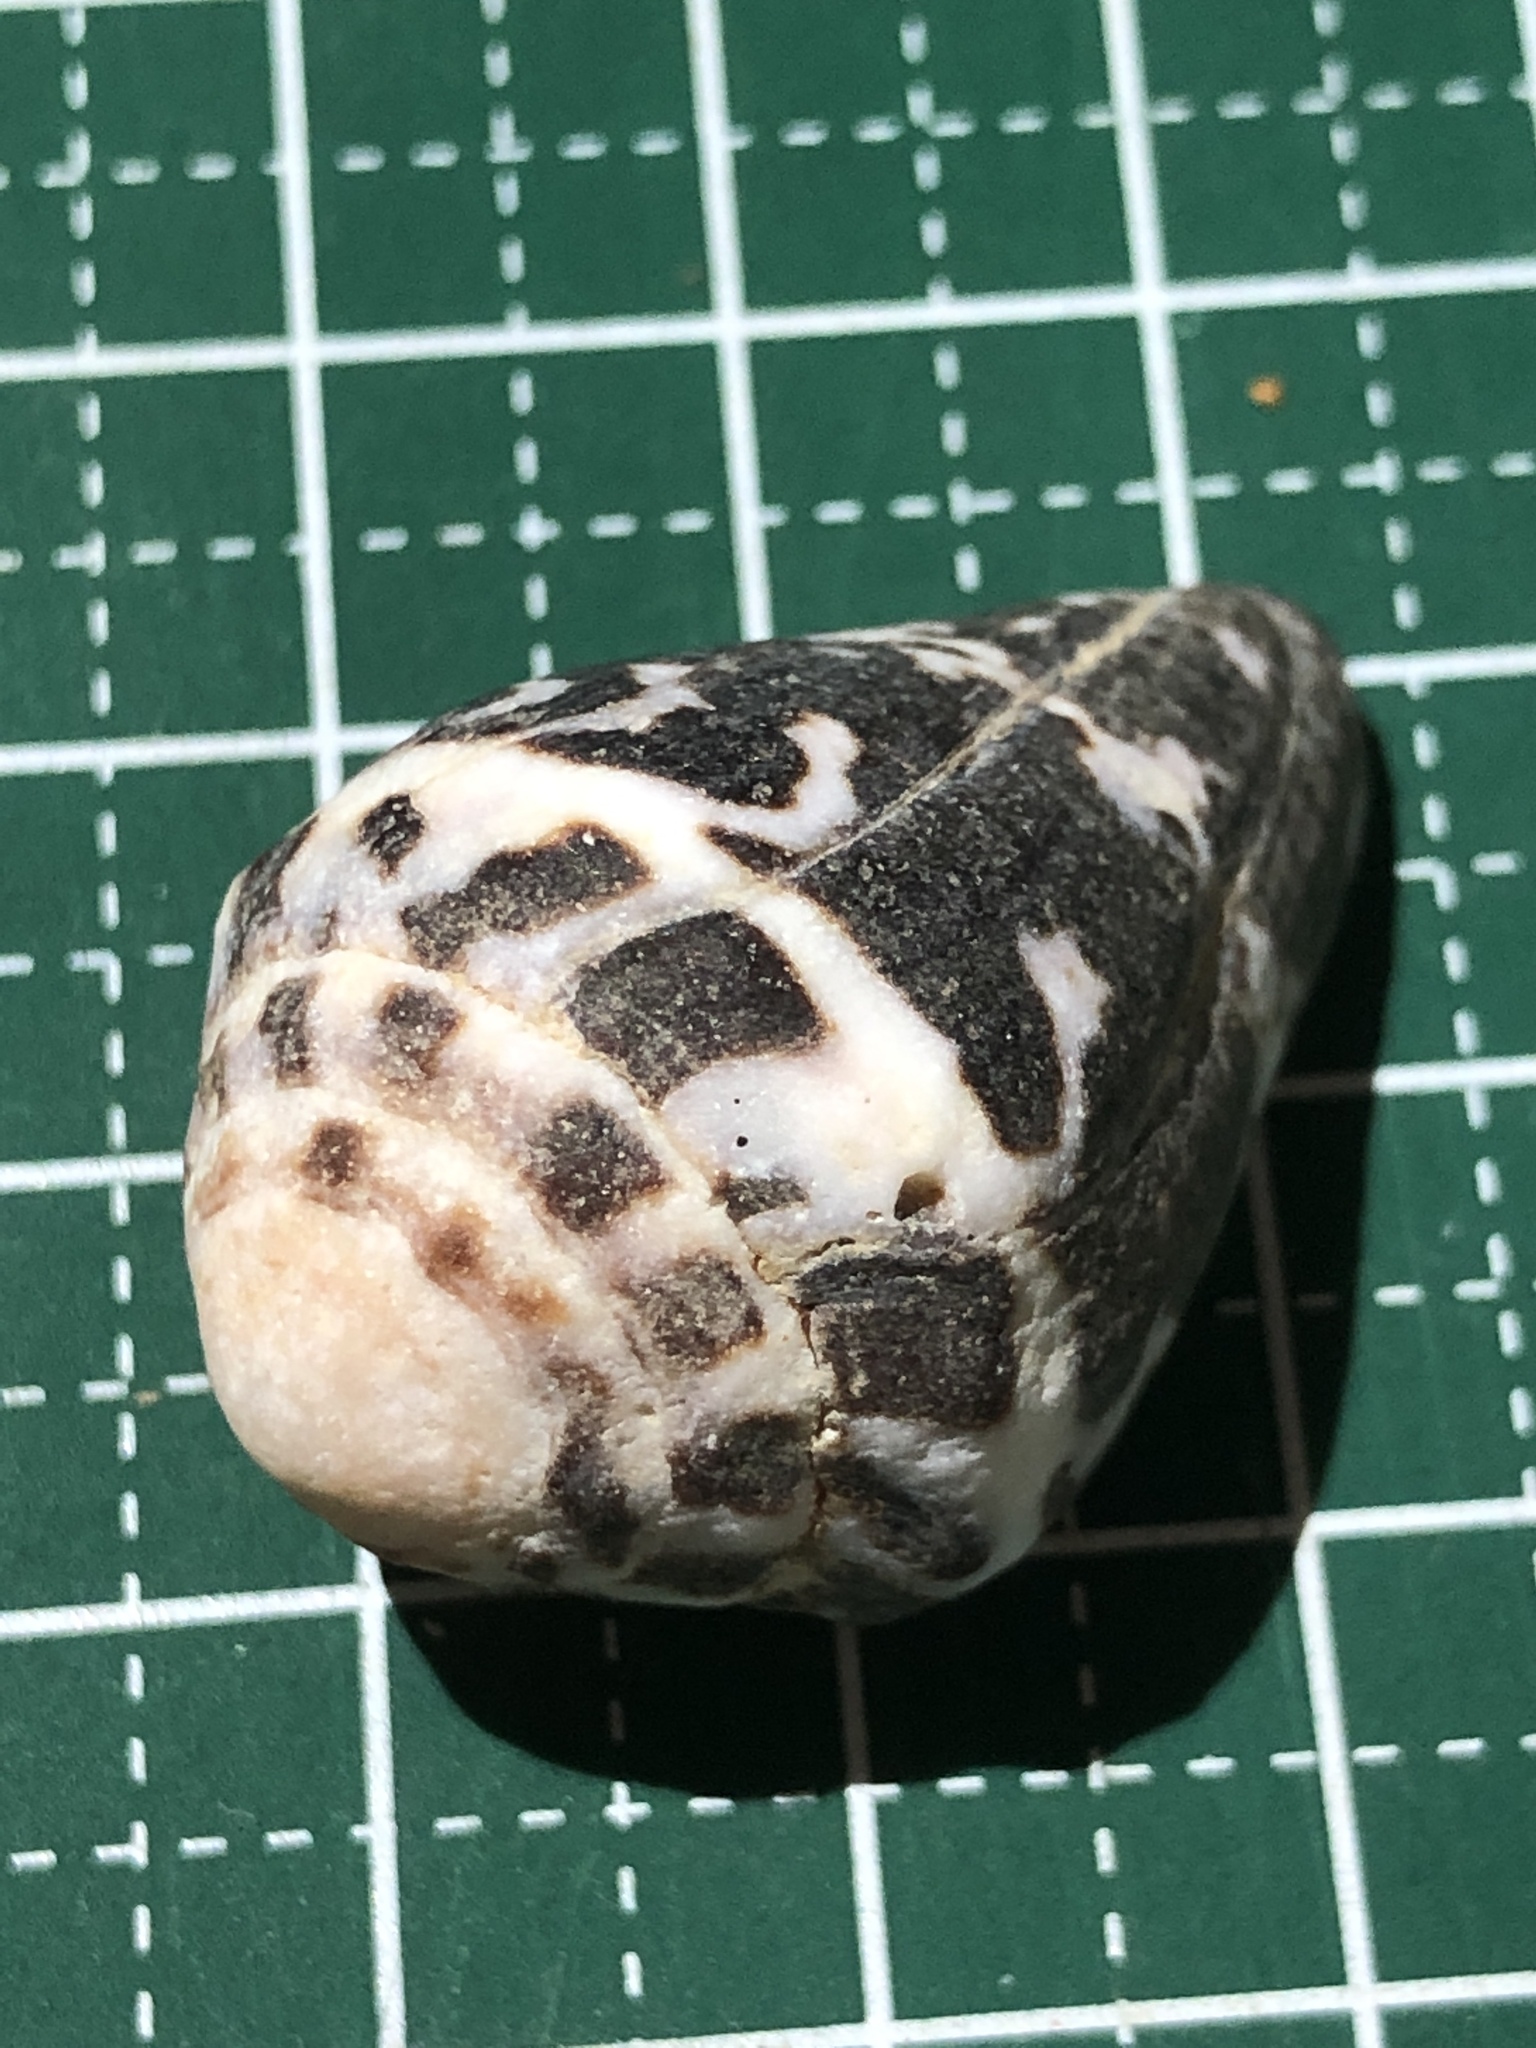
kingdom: Animalia
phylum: Mollusca
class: Gastropoda
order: Neogastropoda
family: Conidae
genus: Conus
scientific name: Conus chaldaeus
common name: Astrologer's cone
